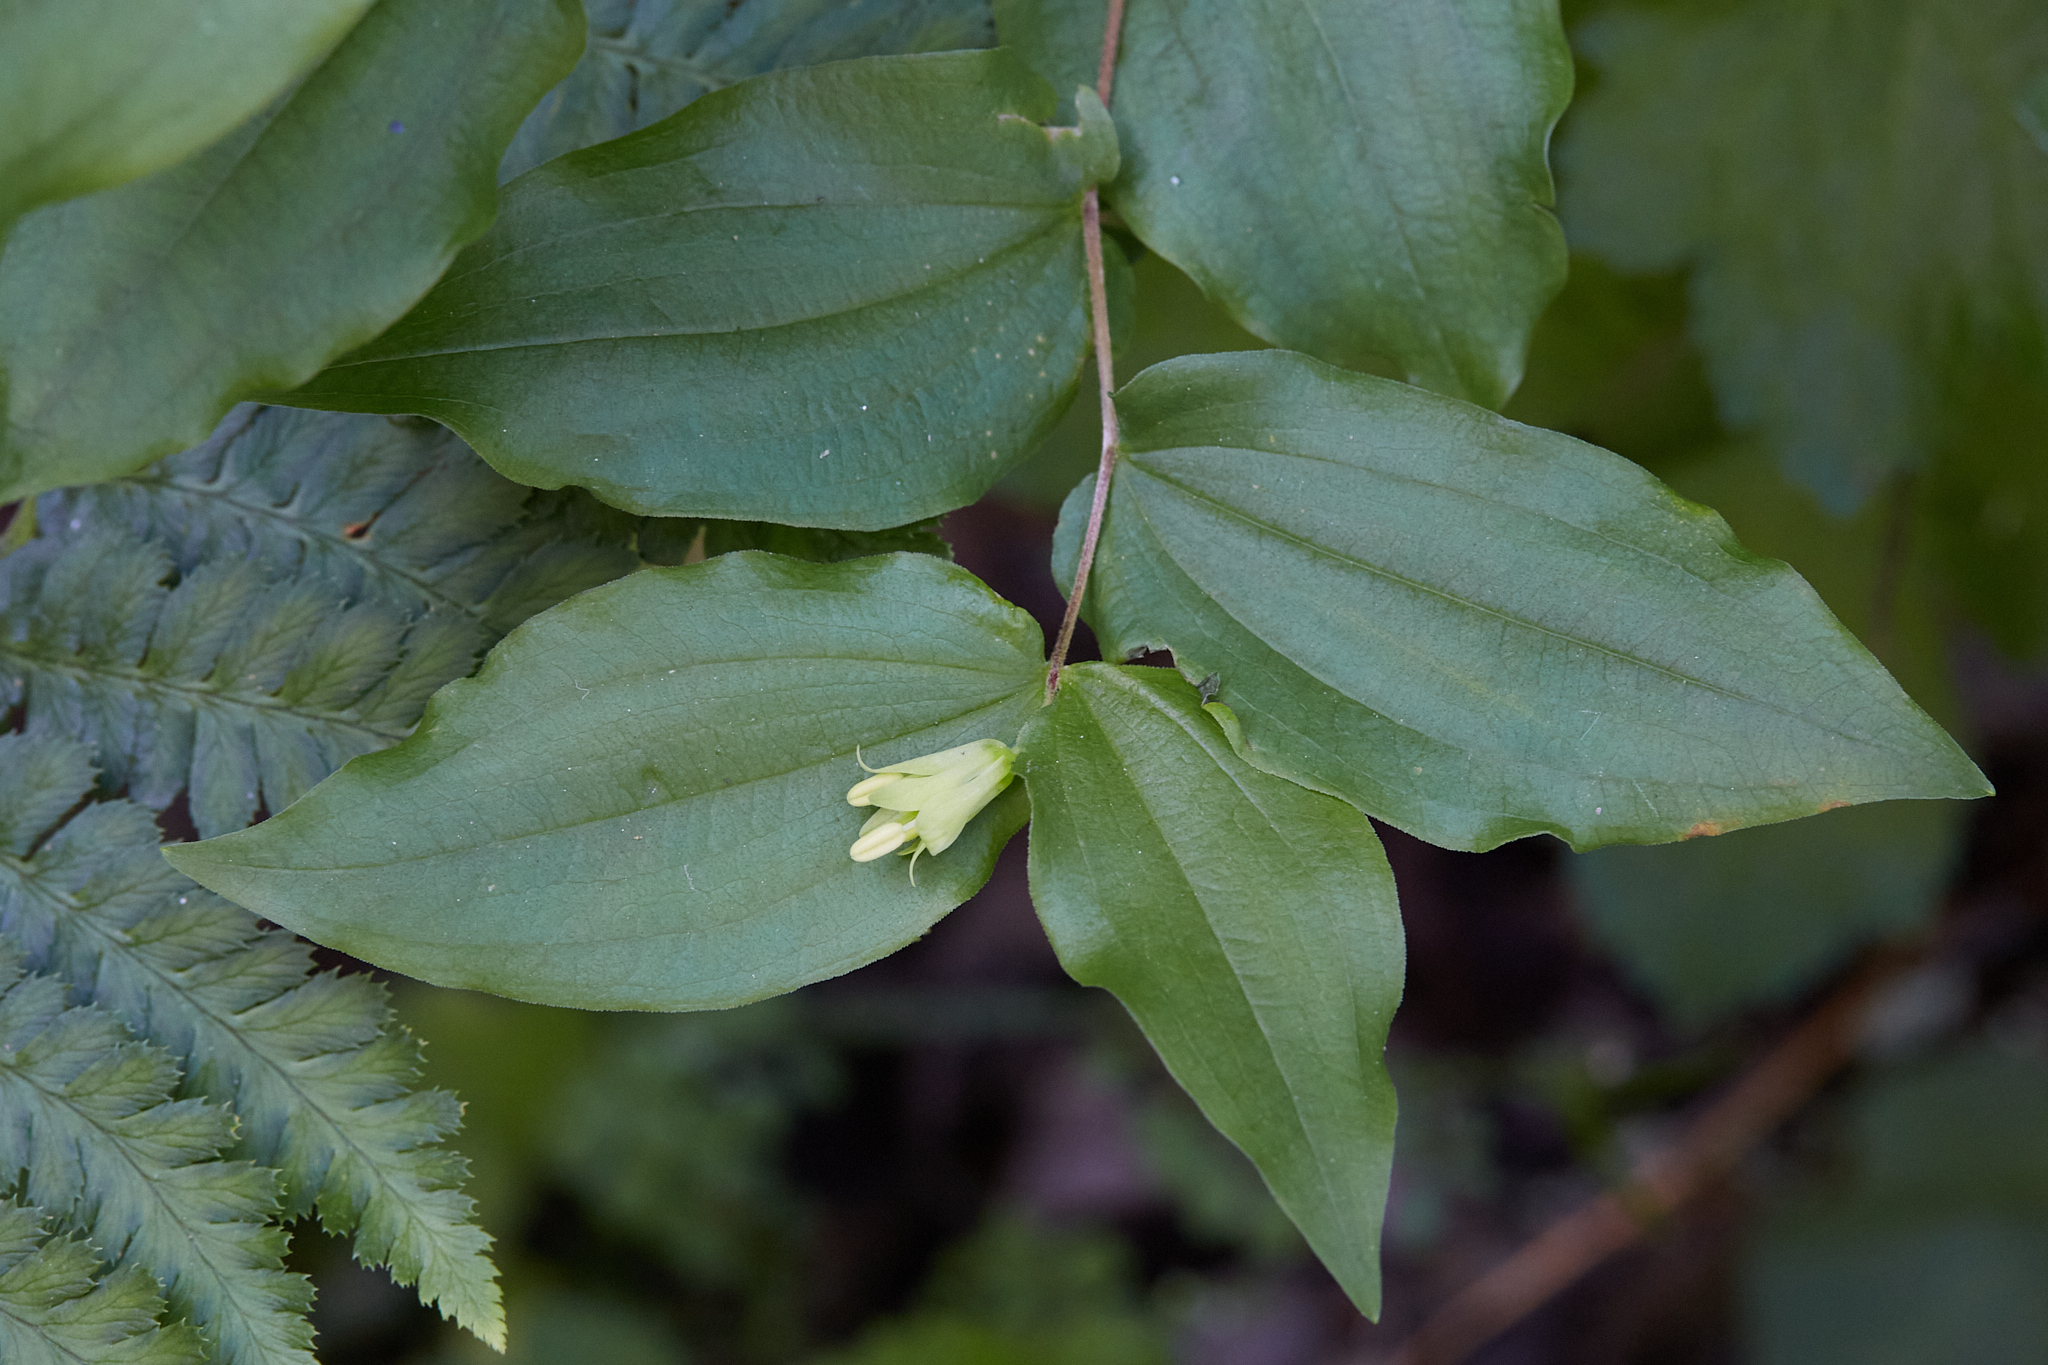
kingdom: Plantae
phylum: Tracheophyta
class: Liliopsida
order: Liliales
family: Liliaceae
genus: Prosartes
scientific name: Prosartes hookeri
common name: Fairy-bells
